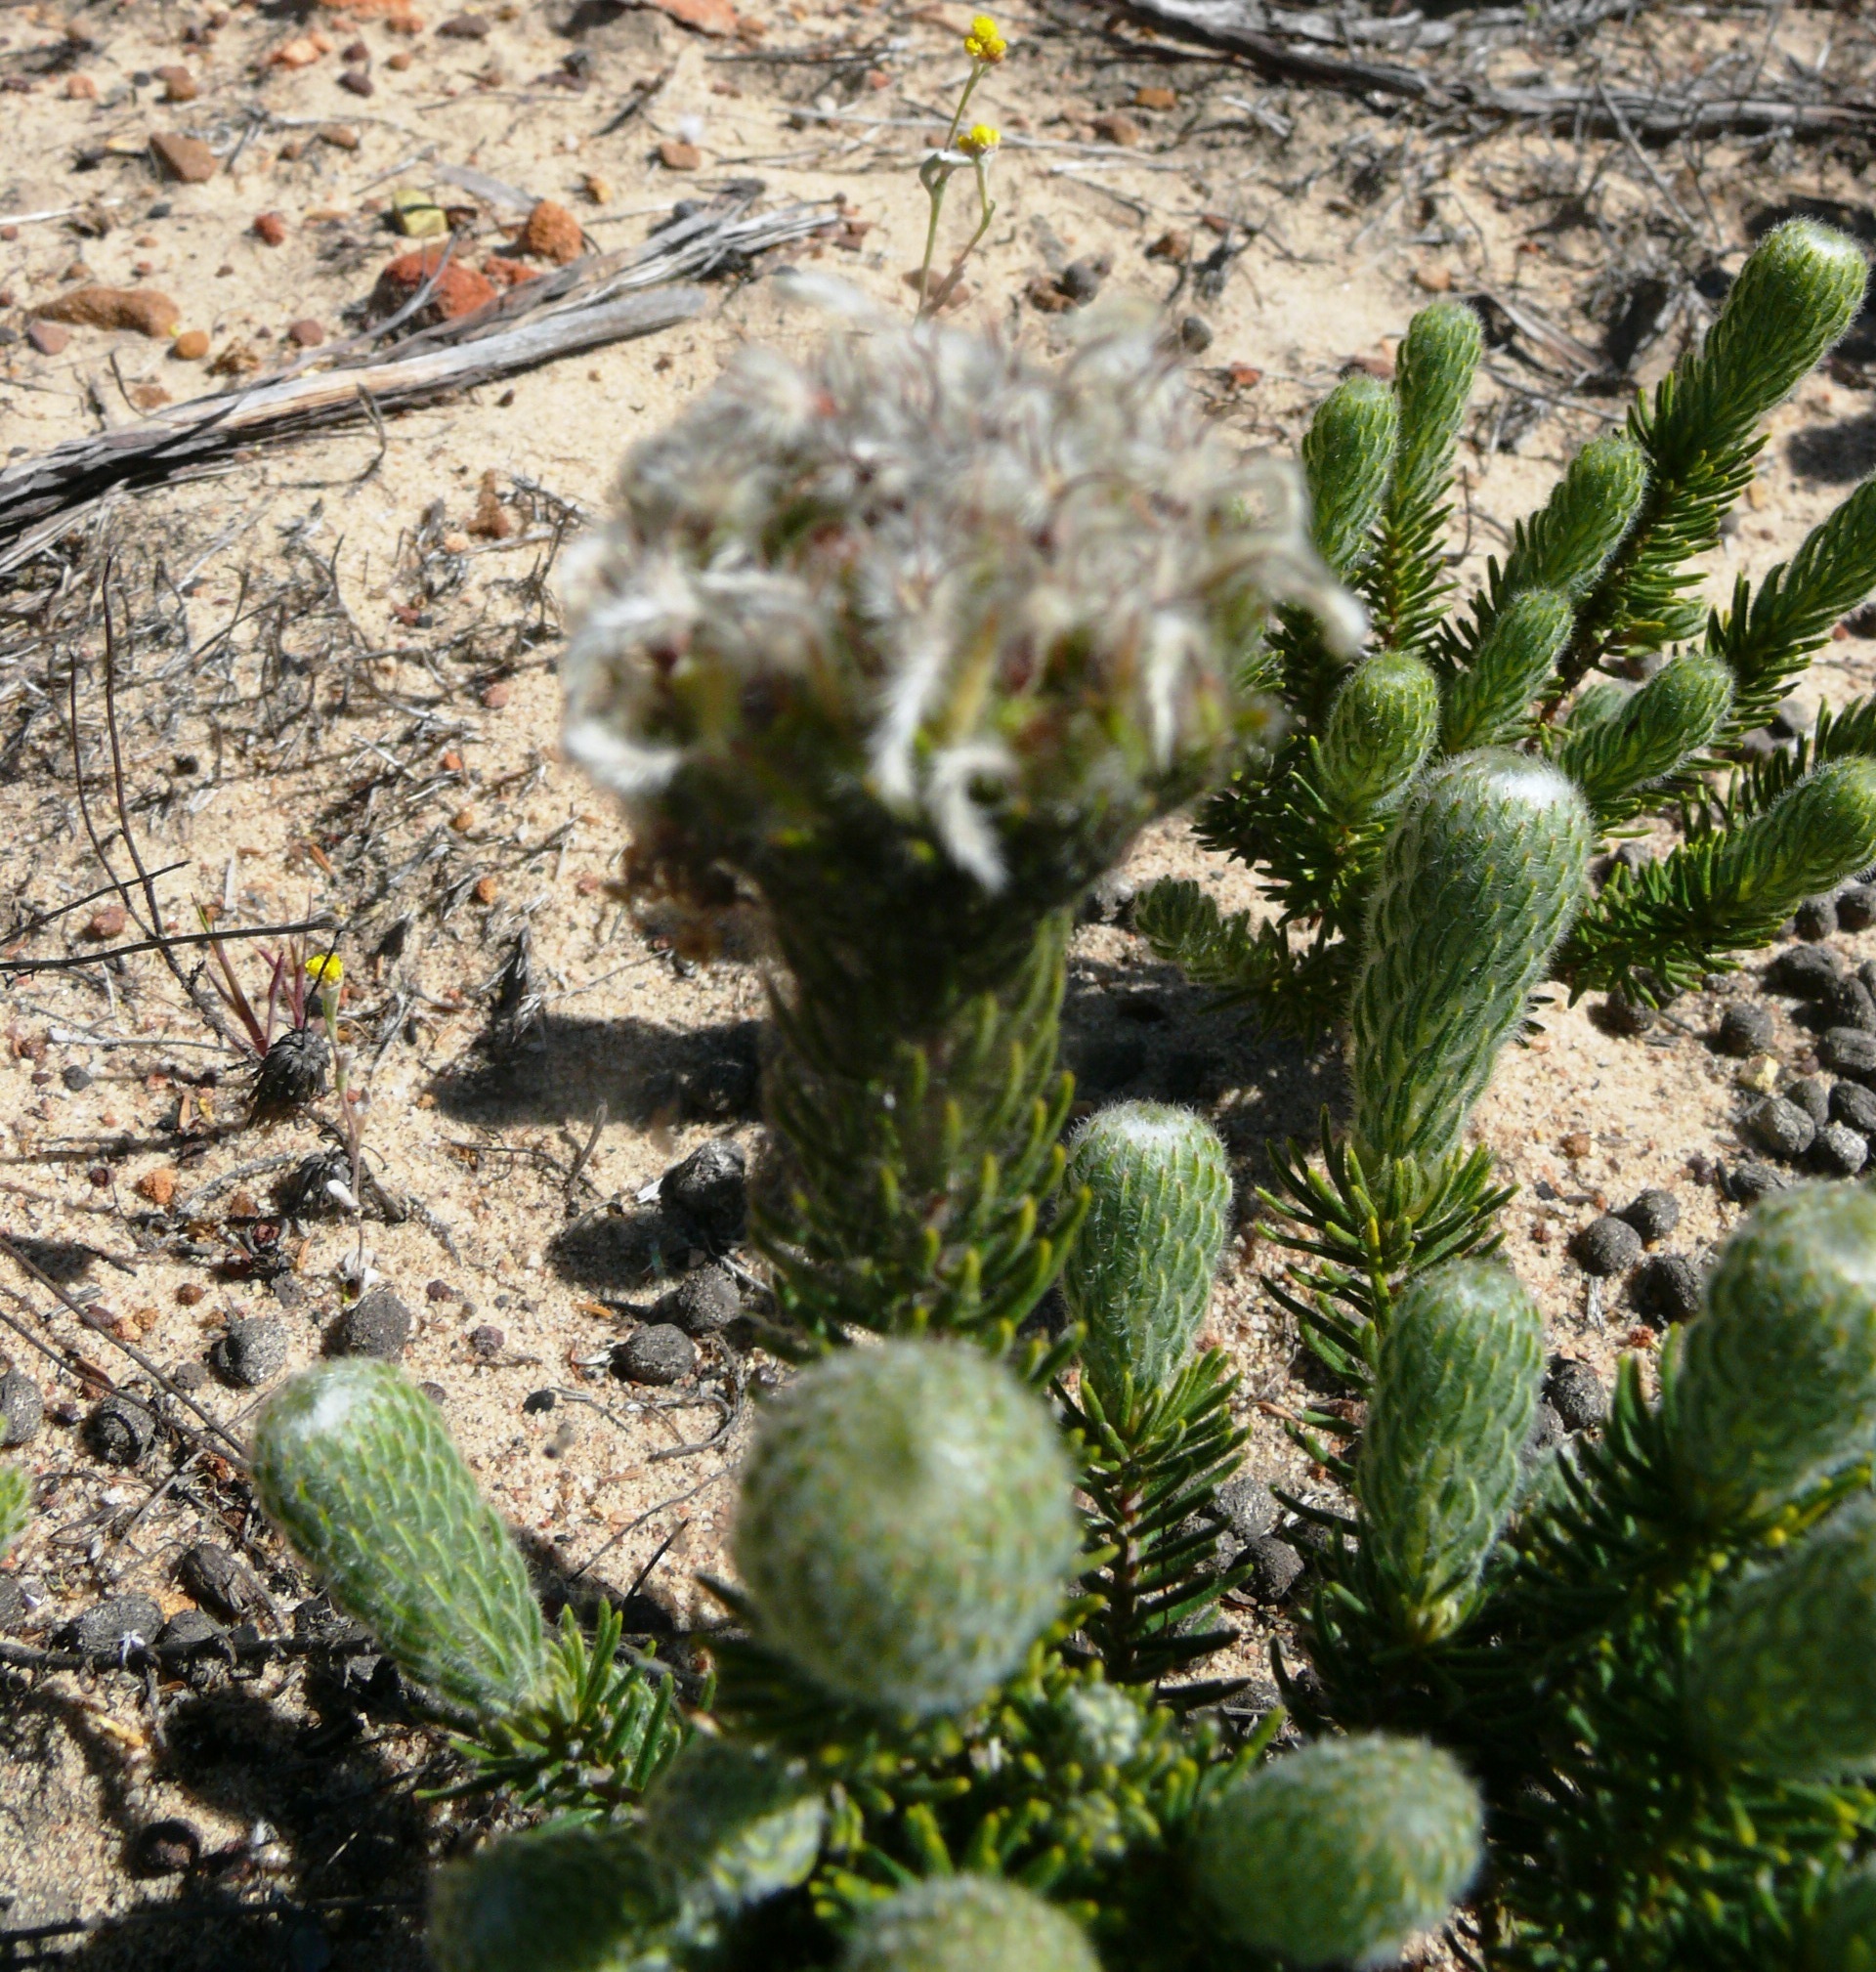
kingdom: Plantae
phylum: Tracheophyta
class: Magnoliopsida
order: Rosales
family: Rhamnaceae
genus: Phylica
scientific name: Phylica affinis
